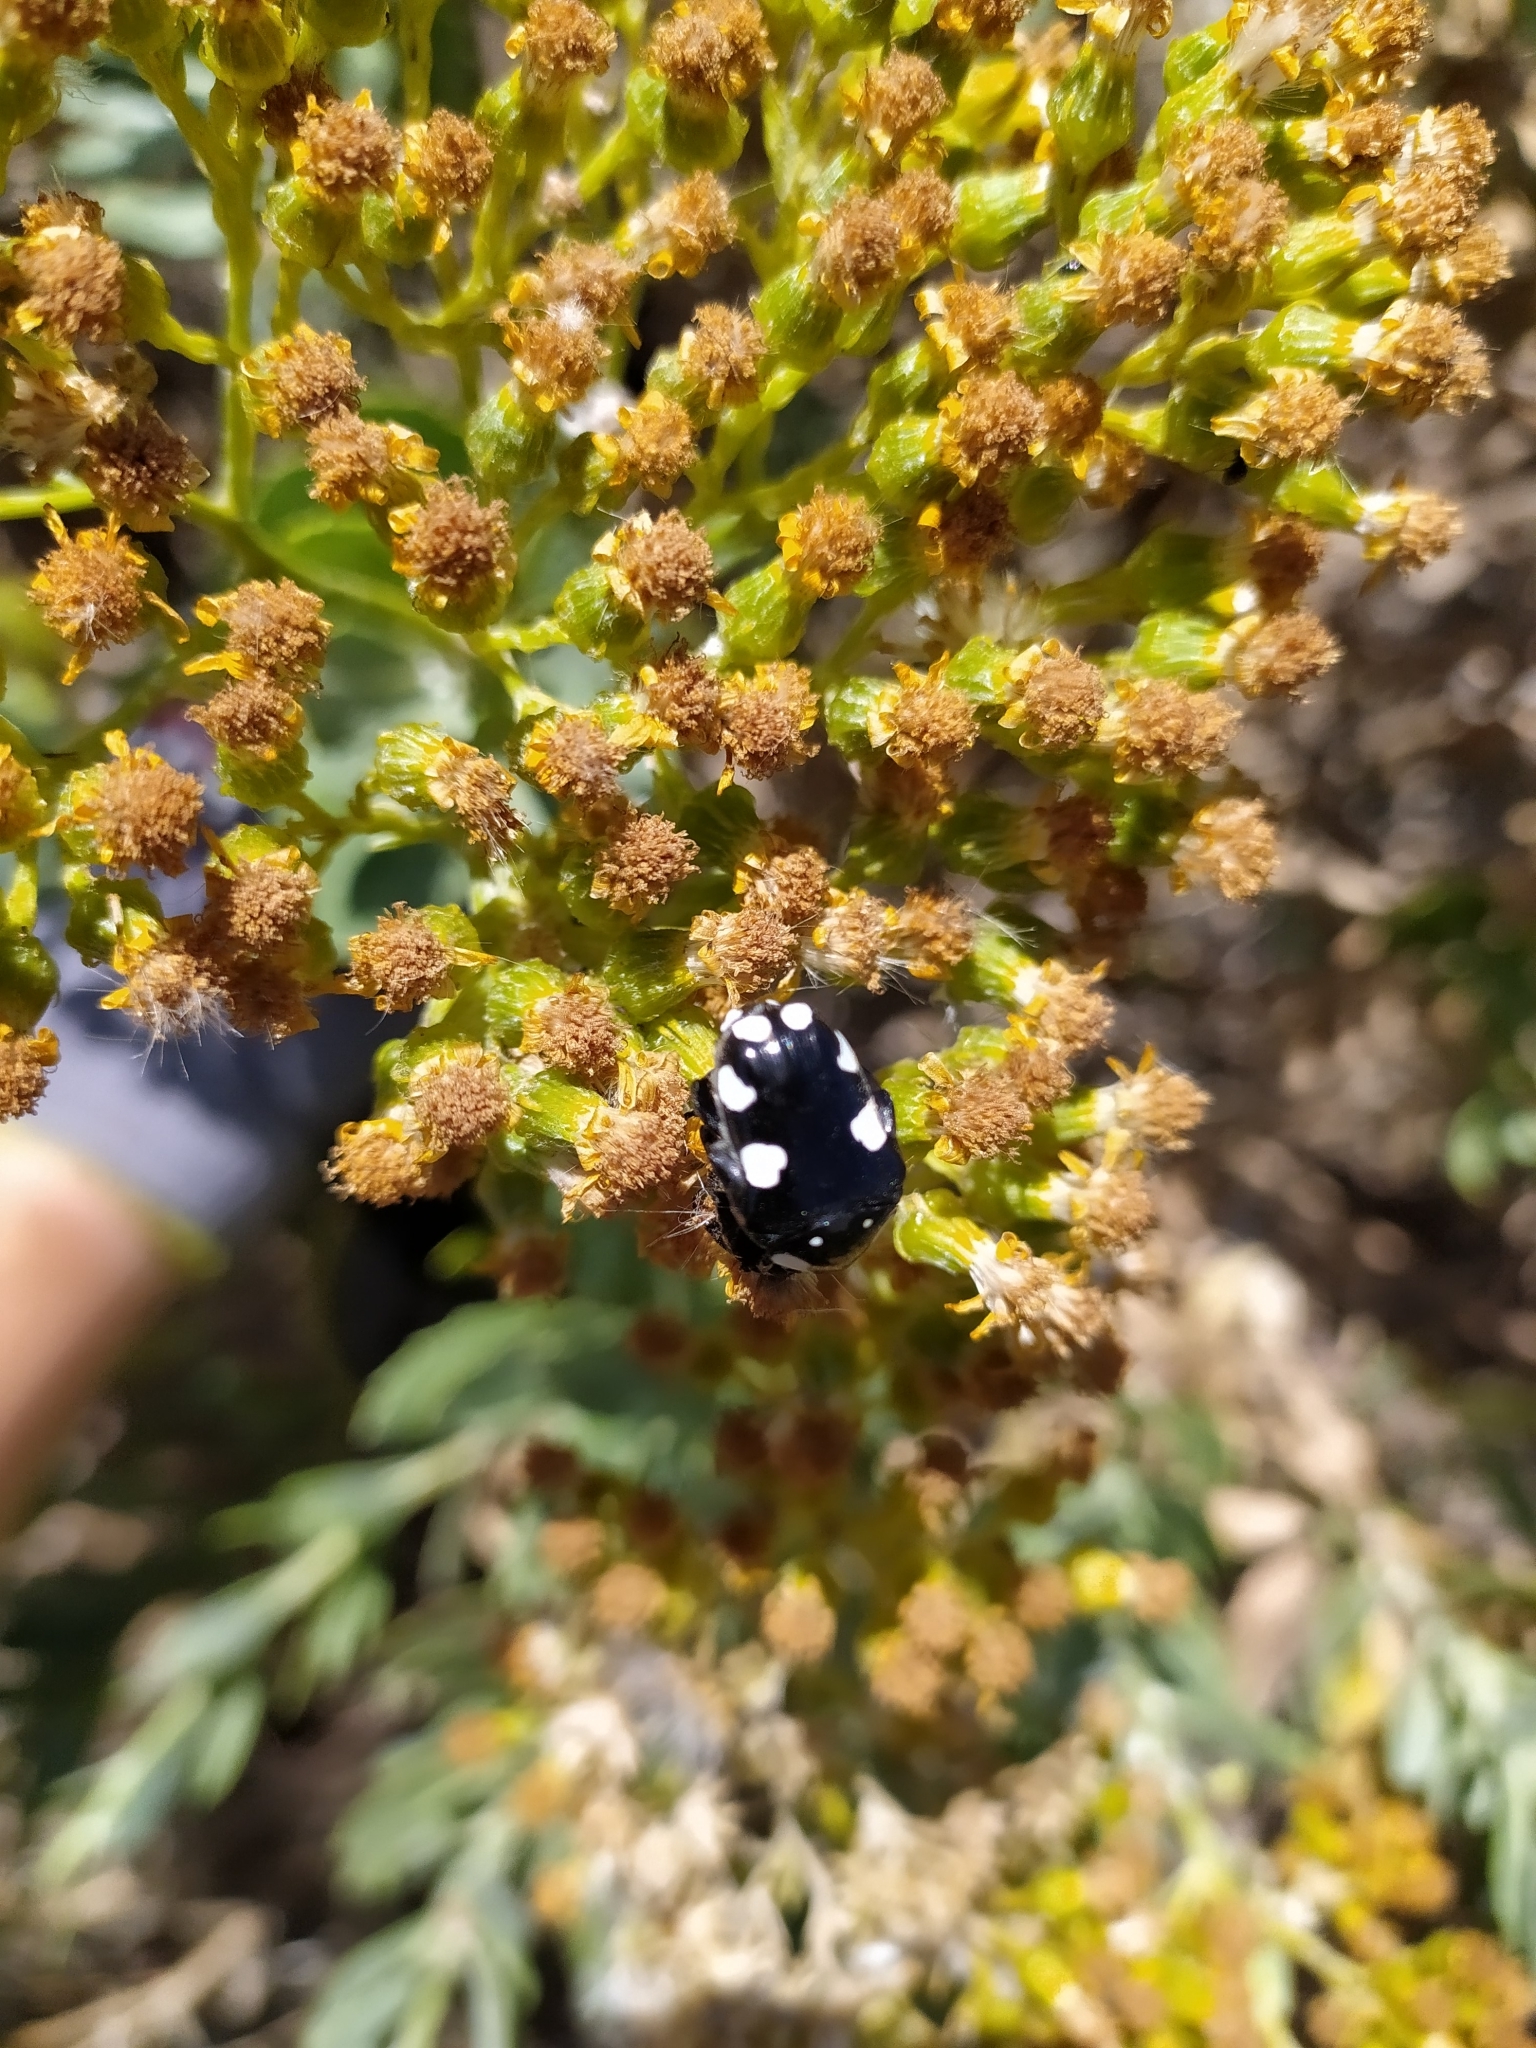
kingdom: Animalia
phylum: Arthropoda
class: Insecta
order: Coleoptera
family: Scarabaeidae
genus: Mausoleopsis
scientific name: Mausoleopsis amabilis
